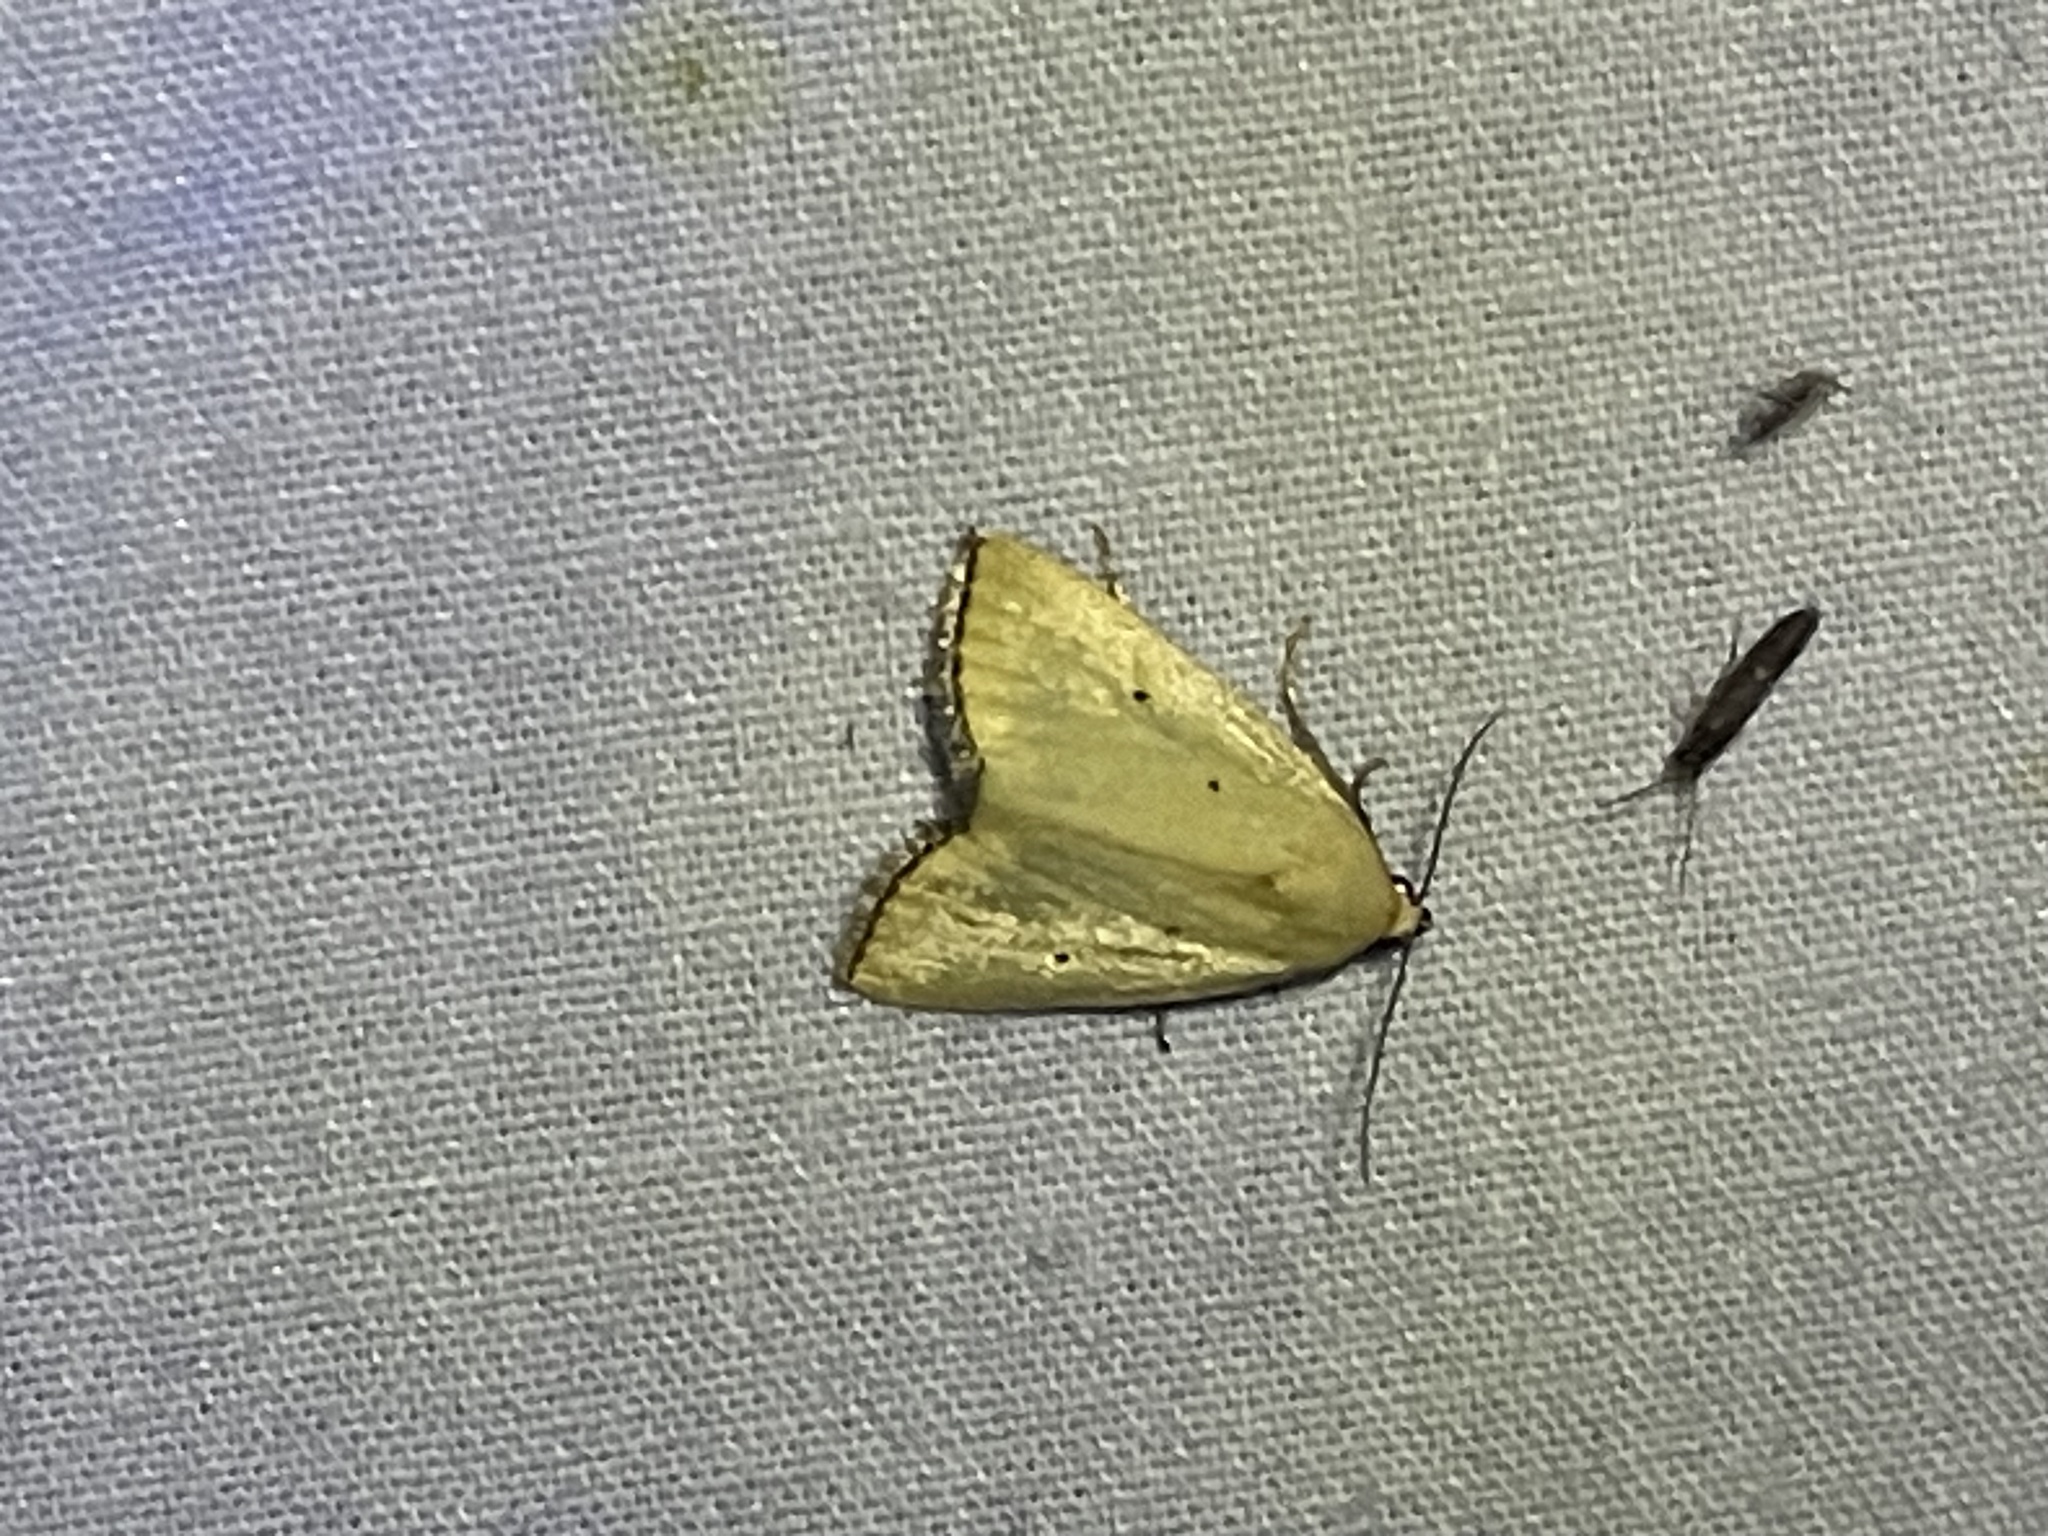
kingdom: Animalia
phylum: Arthropoda
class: Insecta
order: Lepidoptera
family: Noctuidae
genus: Marimatha
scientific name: Marimatha nigrofimbria
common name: Black-bordered lemon moth
